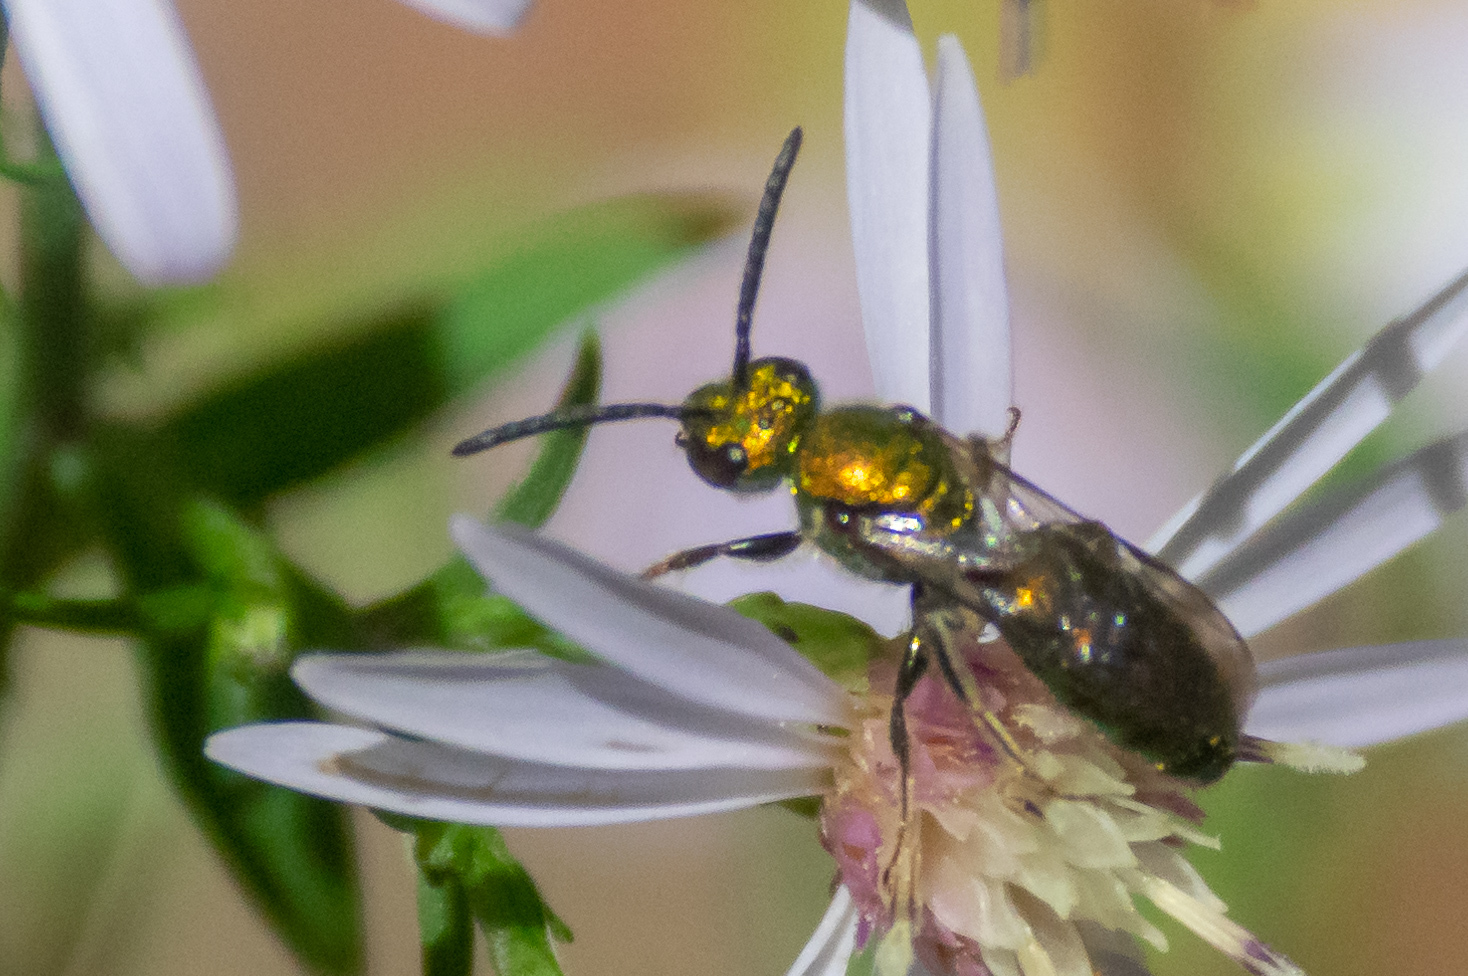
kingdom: Animalia
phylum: Arthropoda
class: Insecta
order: Hymenoptera
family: Halictidae
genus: Augochlora
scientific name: Augochlora pura
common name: Pure green sweat bee
